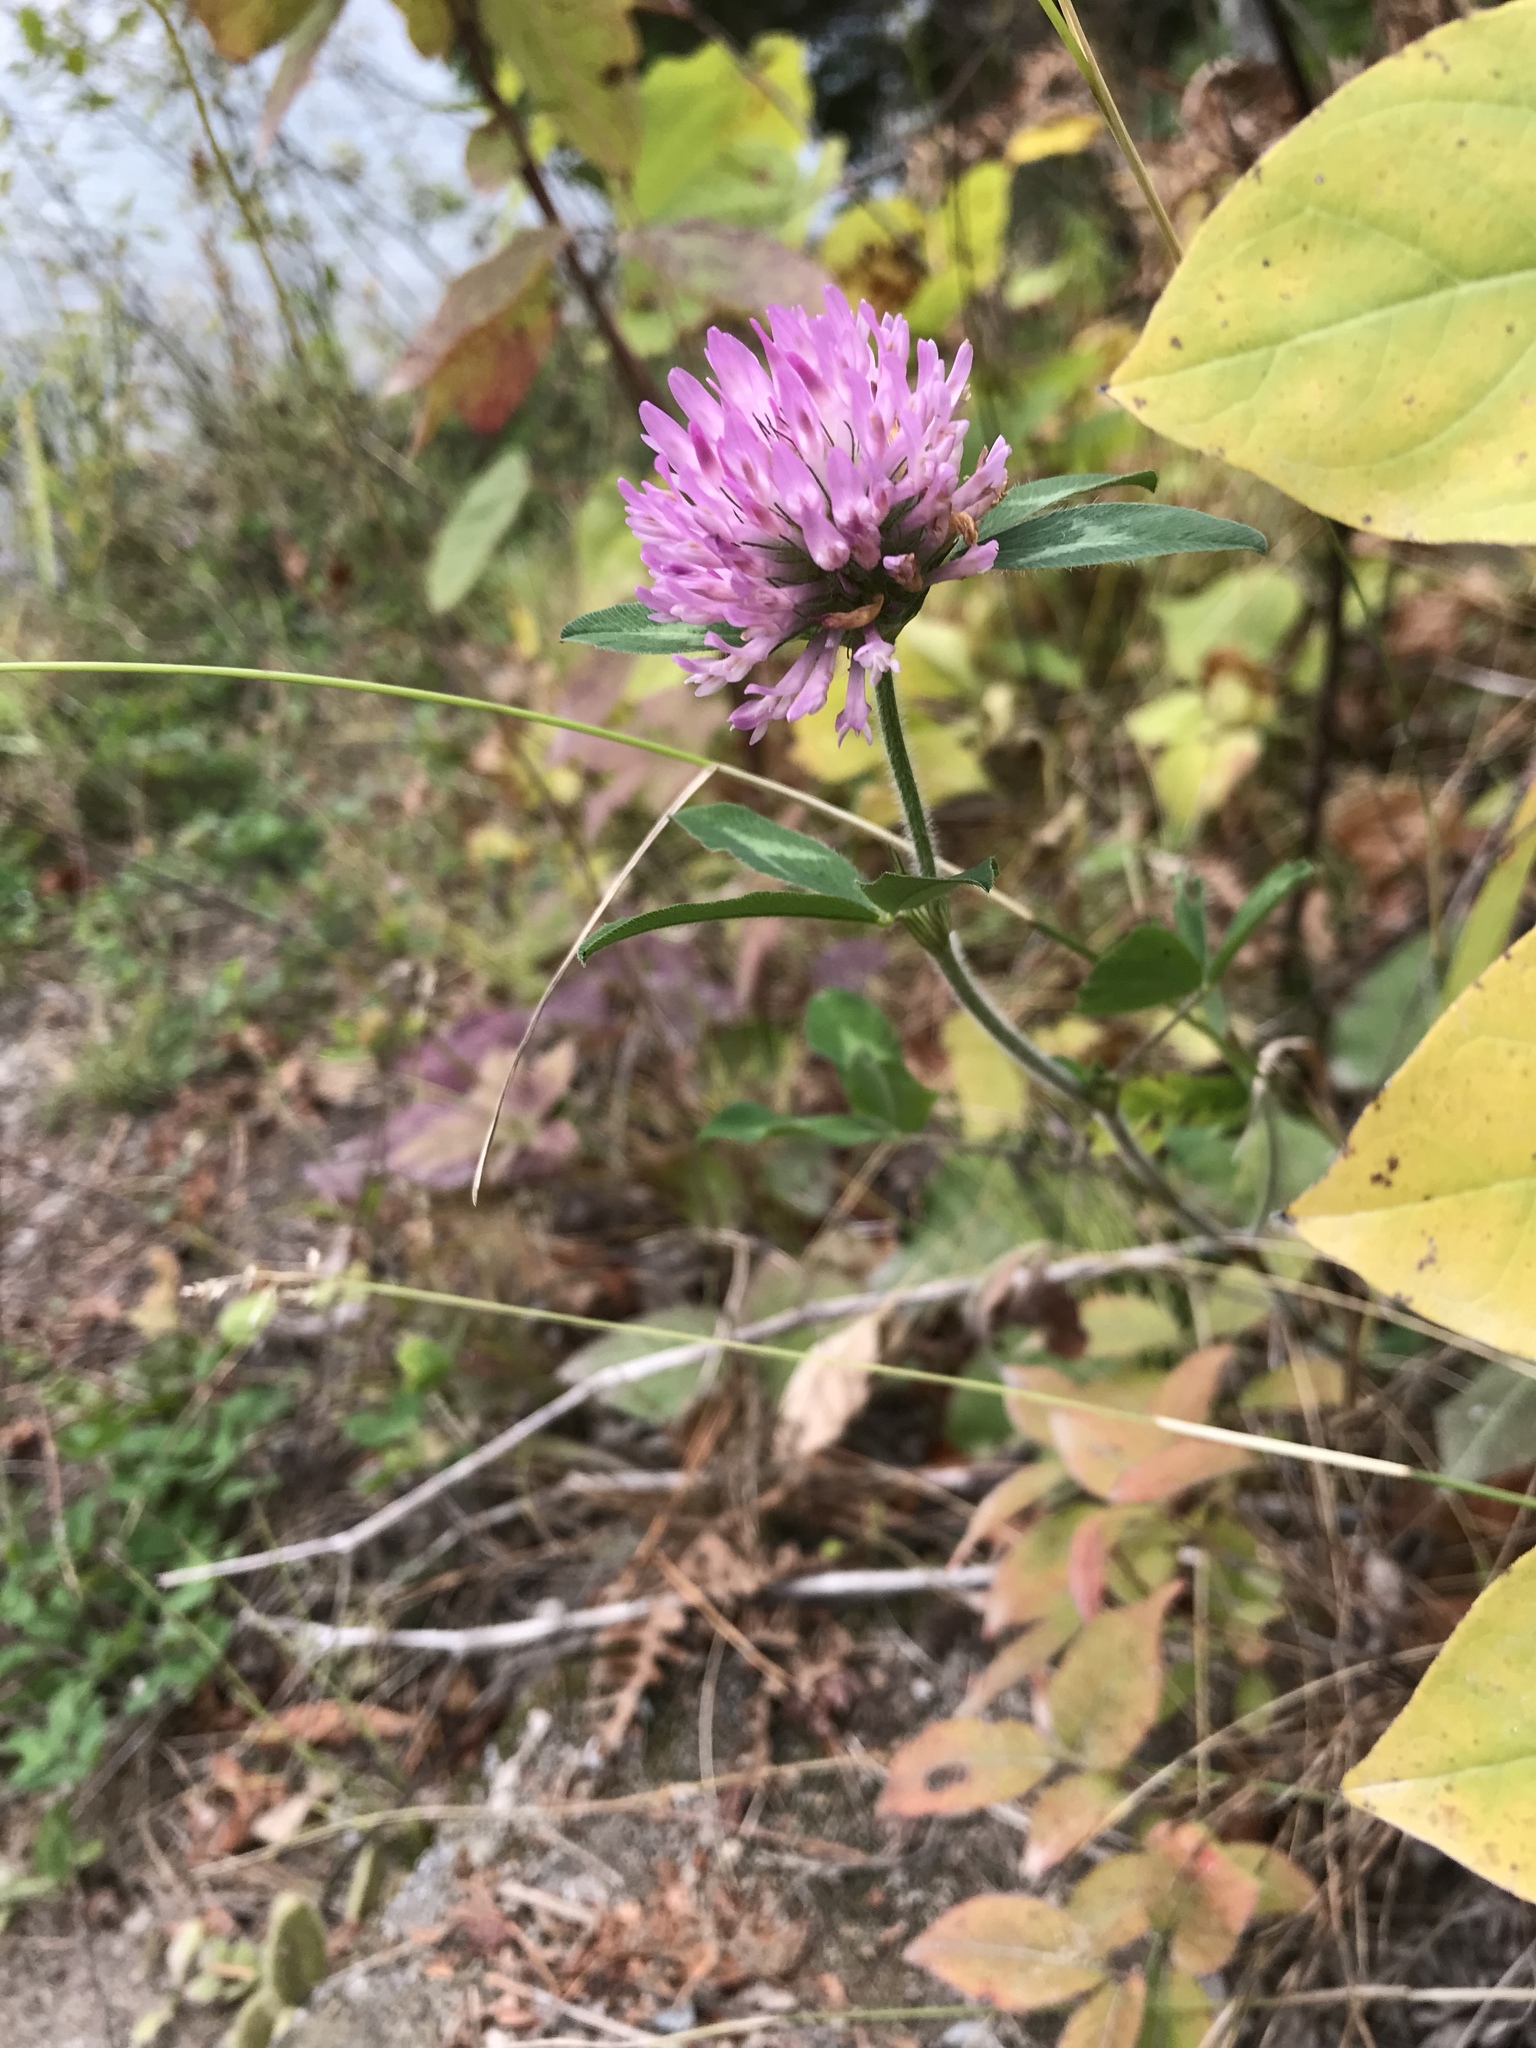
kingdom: Plantae
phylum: Tracheophyta
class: Magnoliopsida
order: Fabales
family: Fabaceae
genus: Trifolium
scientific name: Trifolium pratense
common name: Red clover
